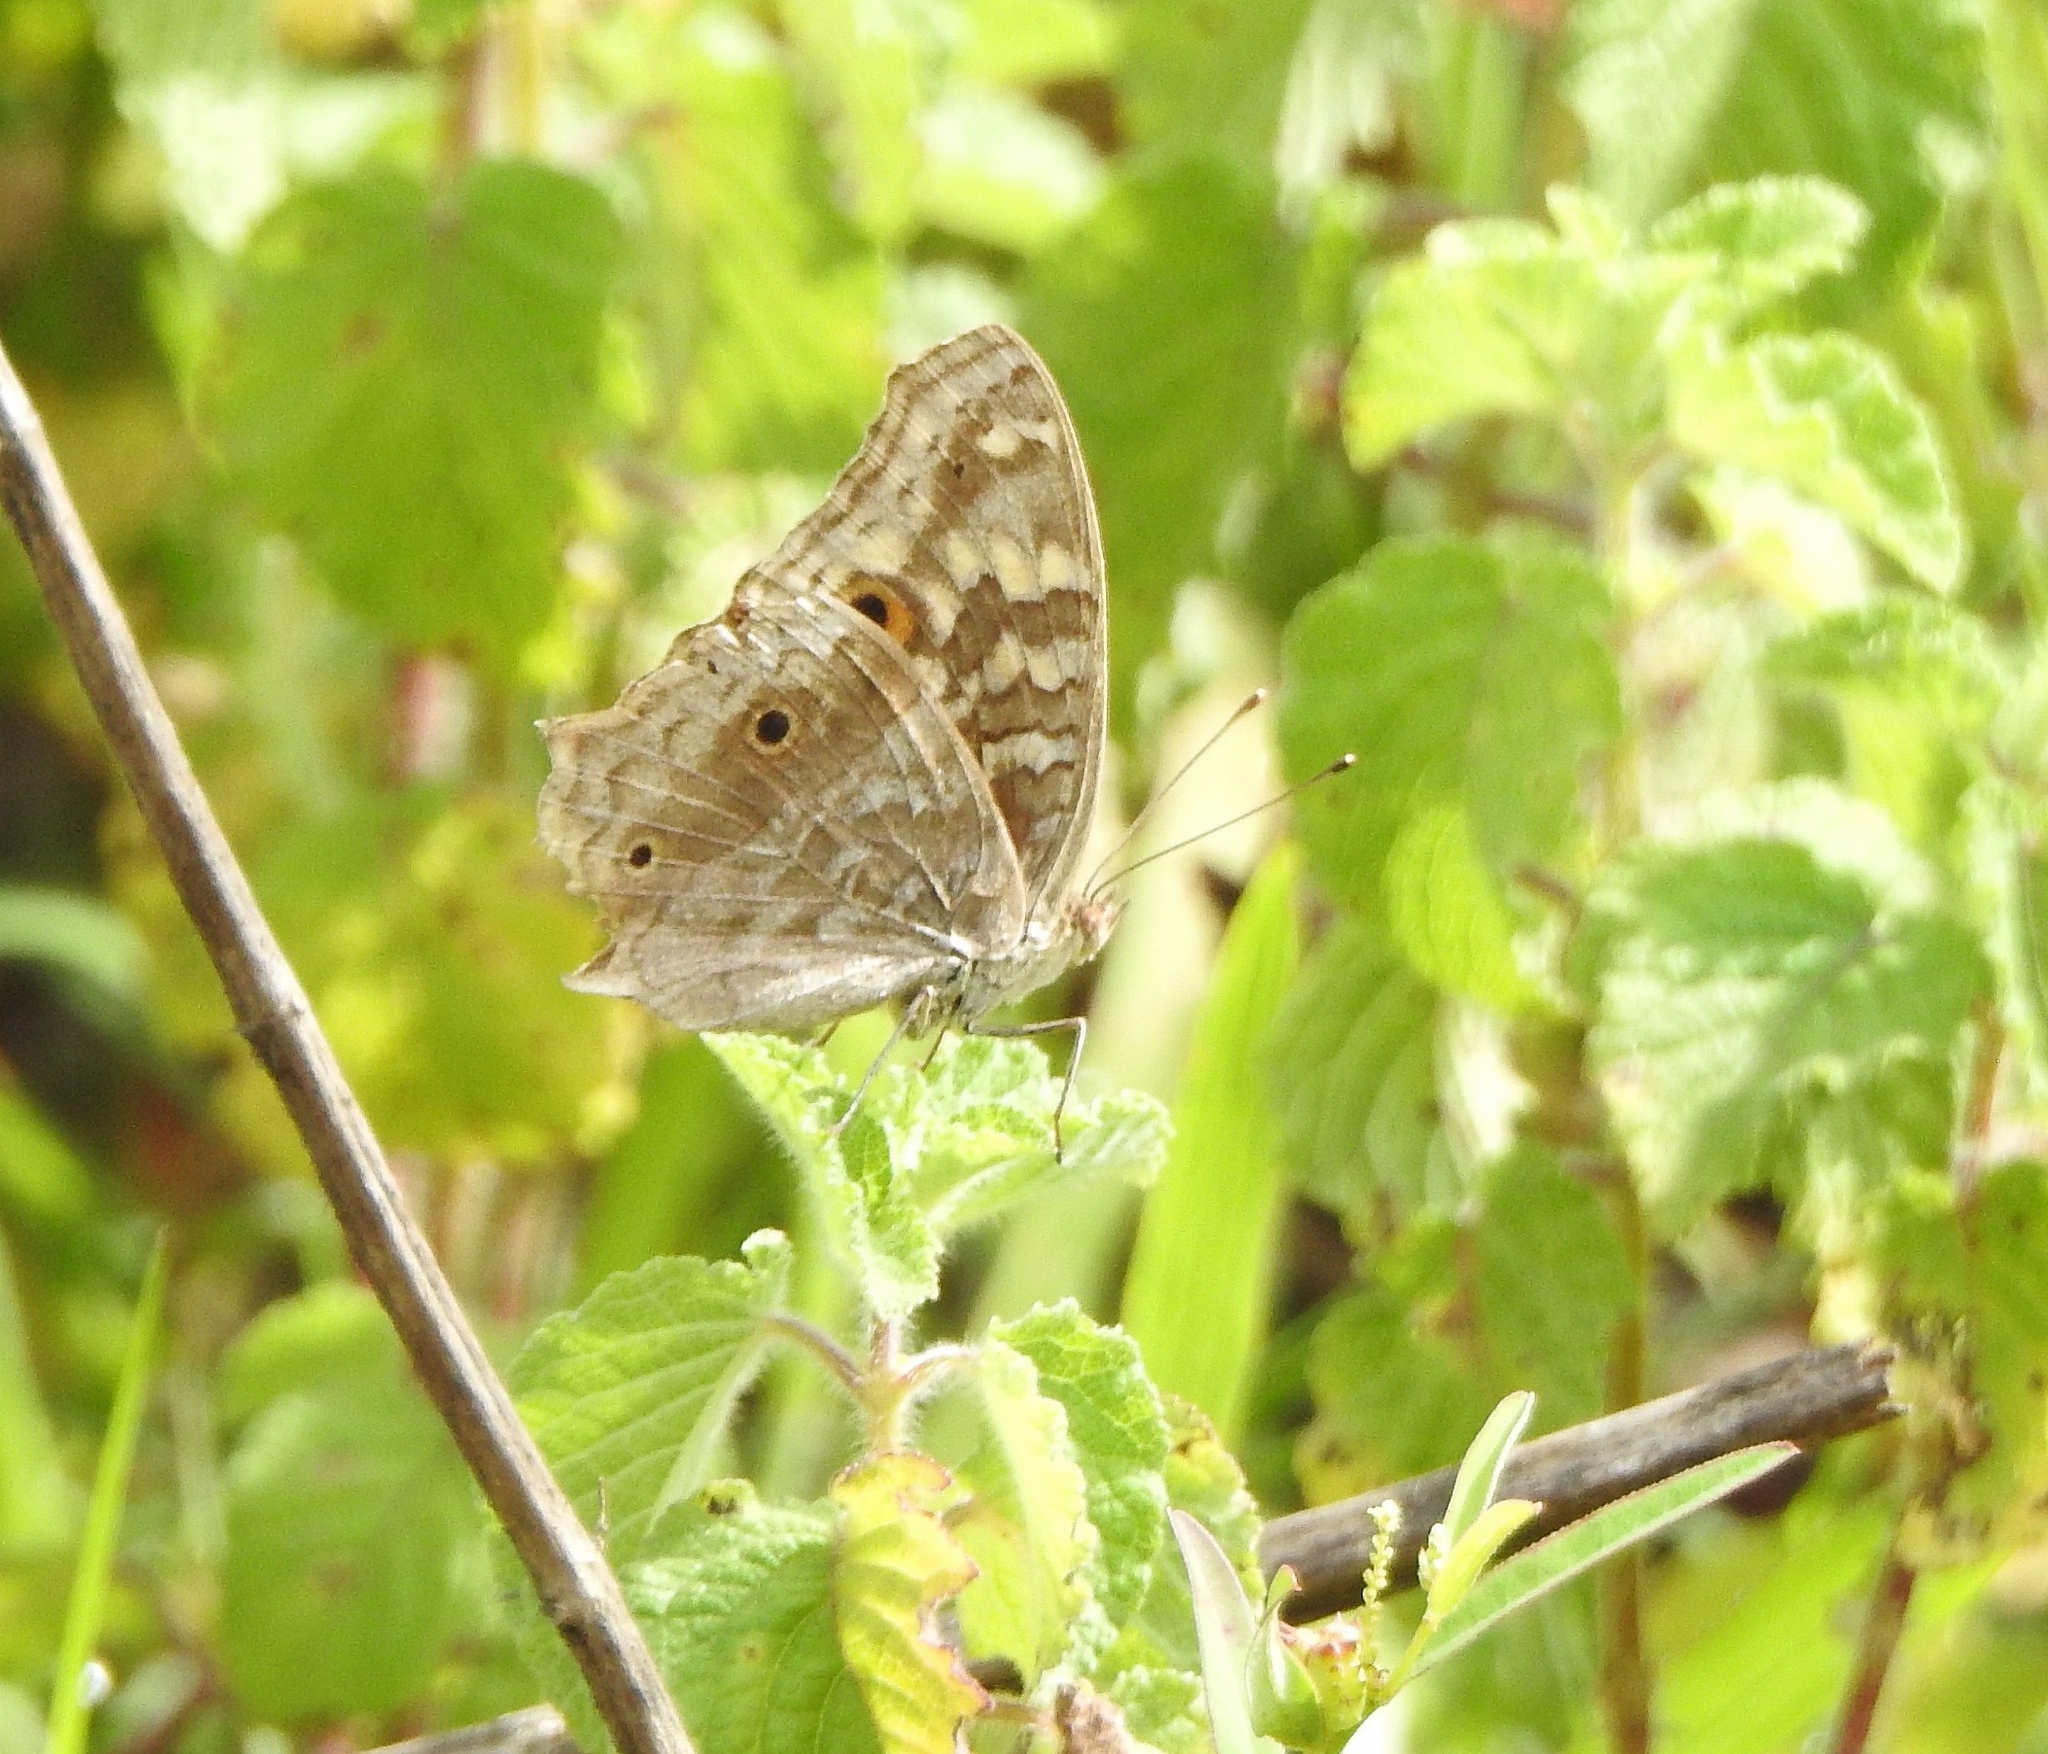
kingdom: Animalia
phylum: Arthropoda
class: Insecta
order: Lepidoptera
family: Nymphalidae
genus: Junonia
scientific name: Junonia lemonias
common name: Lemon pansy
